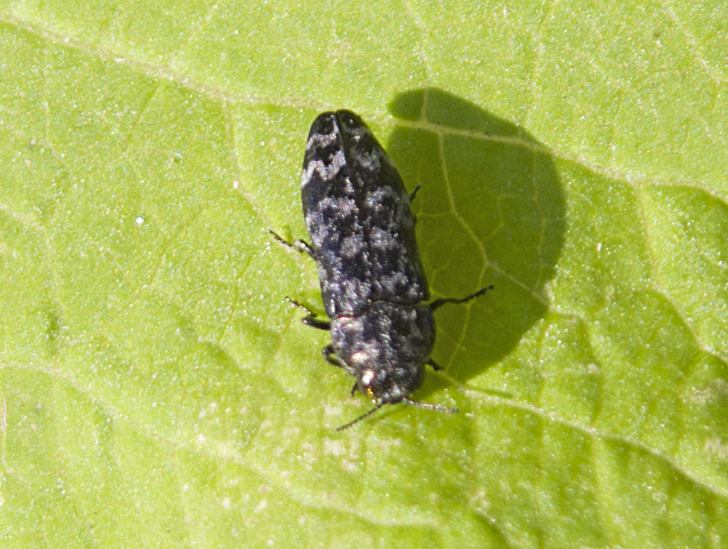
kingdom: Animalia
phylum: Arthropoda
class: Insecta
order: Coleoptera
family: Buprestidae
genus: Coraebus
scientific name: Coraebus rubi
